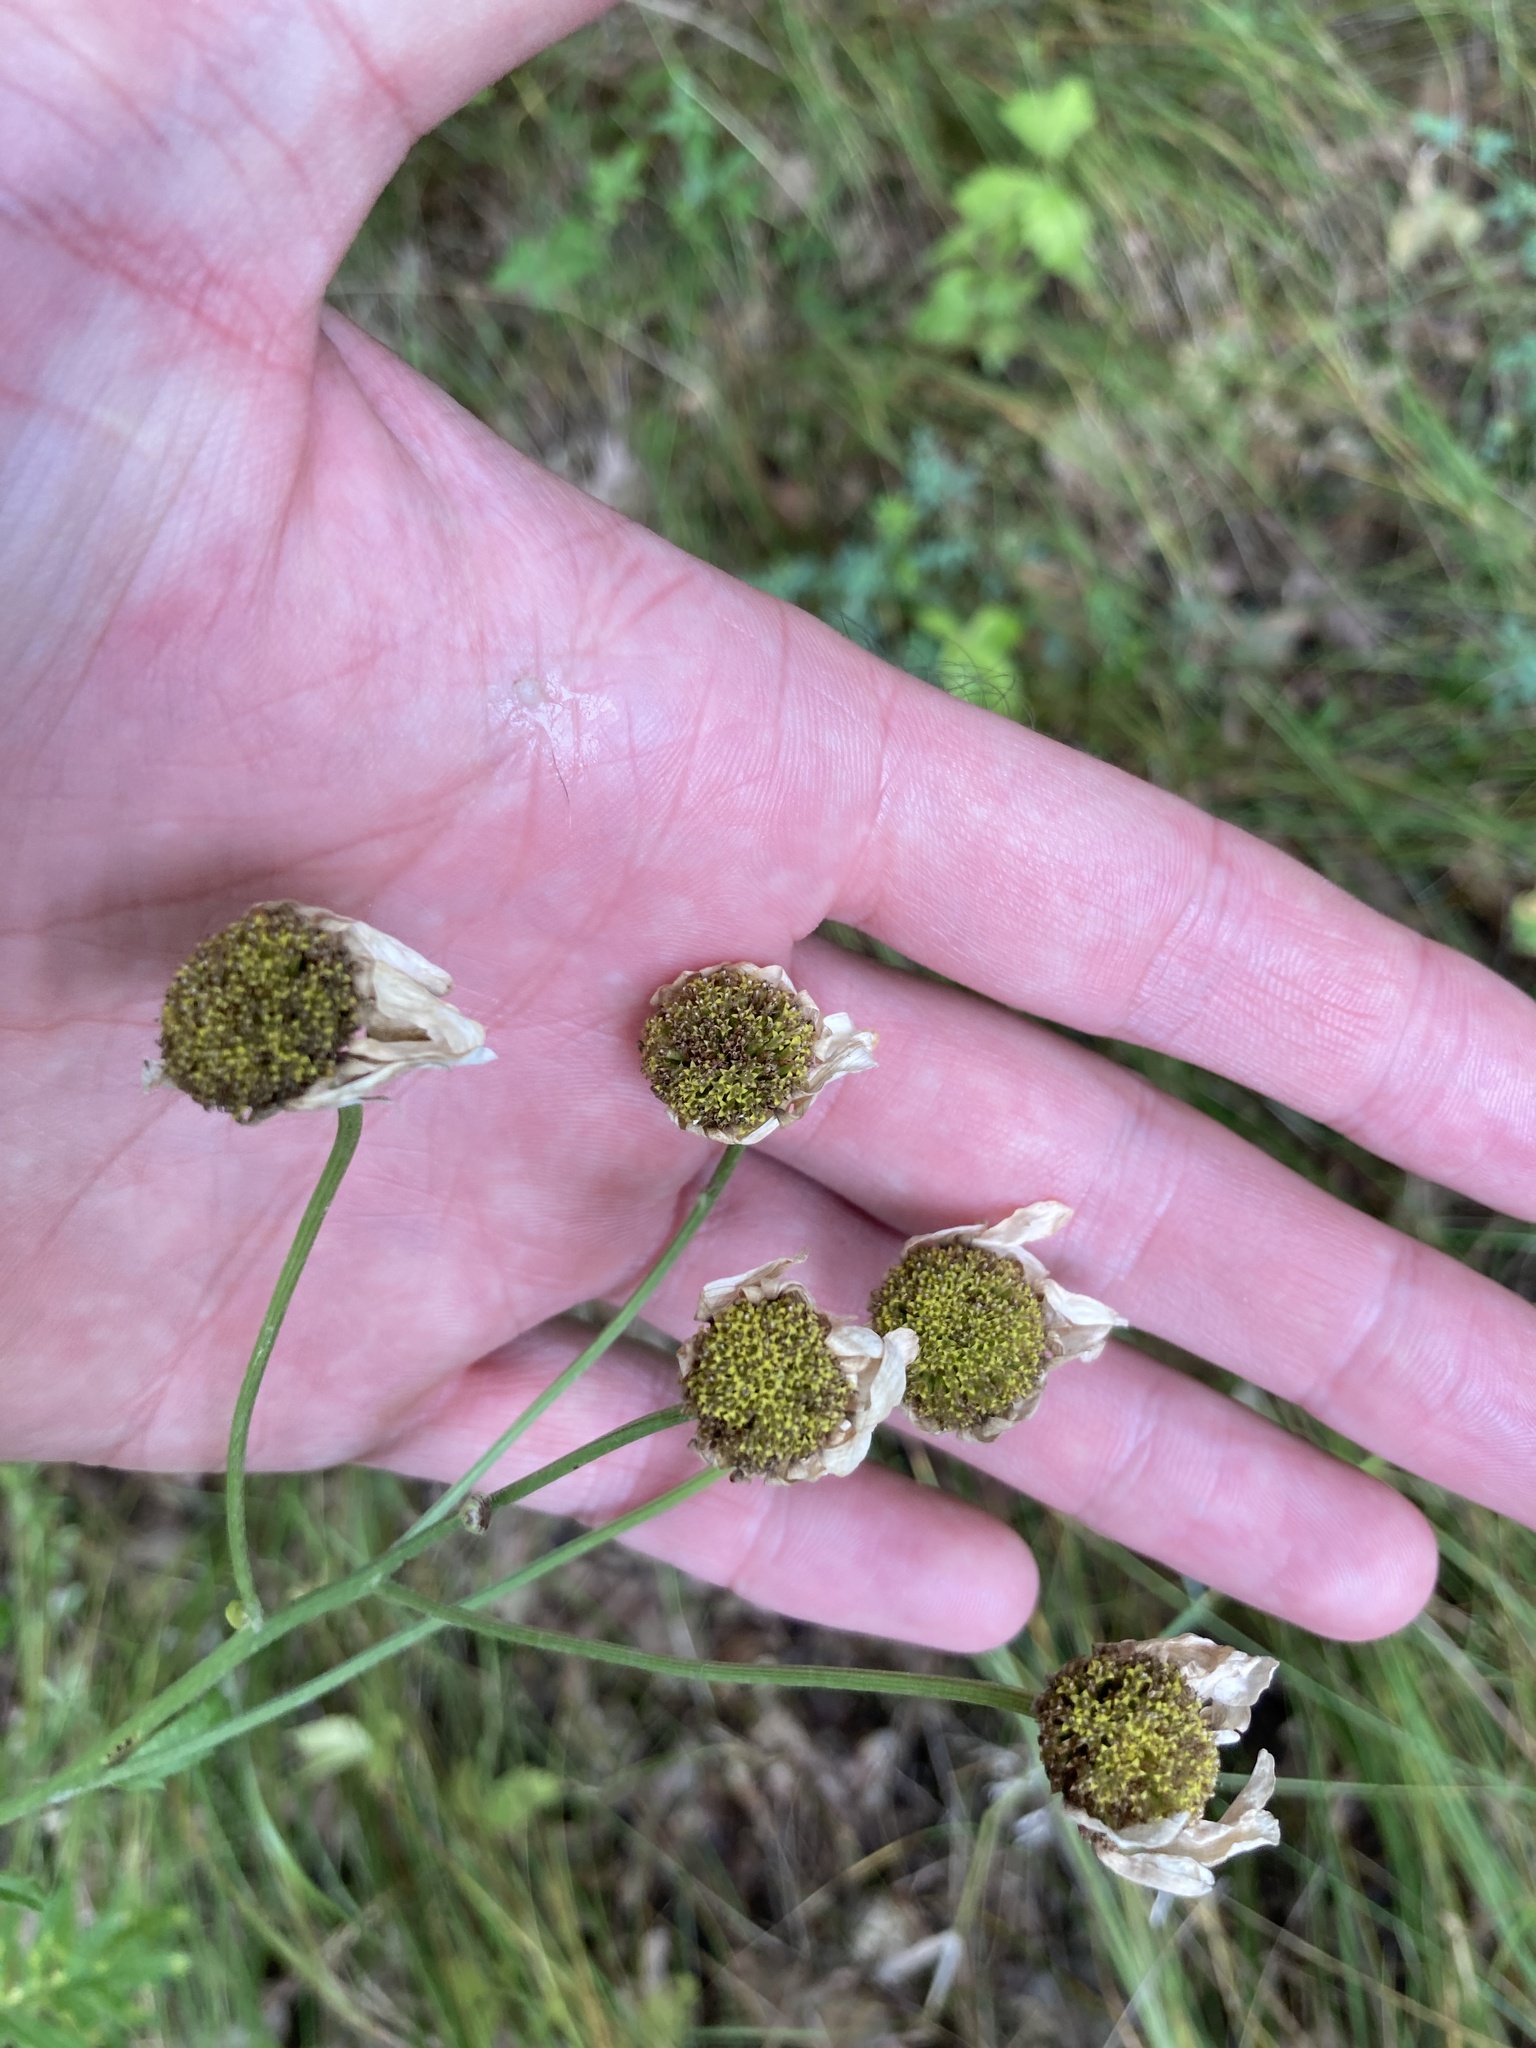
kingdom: Plantae
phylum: Tracheophyta
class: Magnoliopsida
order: Asterales
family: Asteraceae
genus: Tanacetum
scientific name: Tanacetum corymbosum
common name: Scentless feverfew
